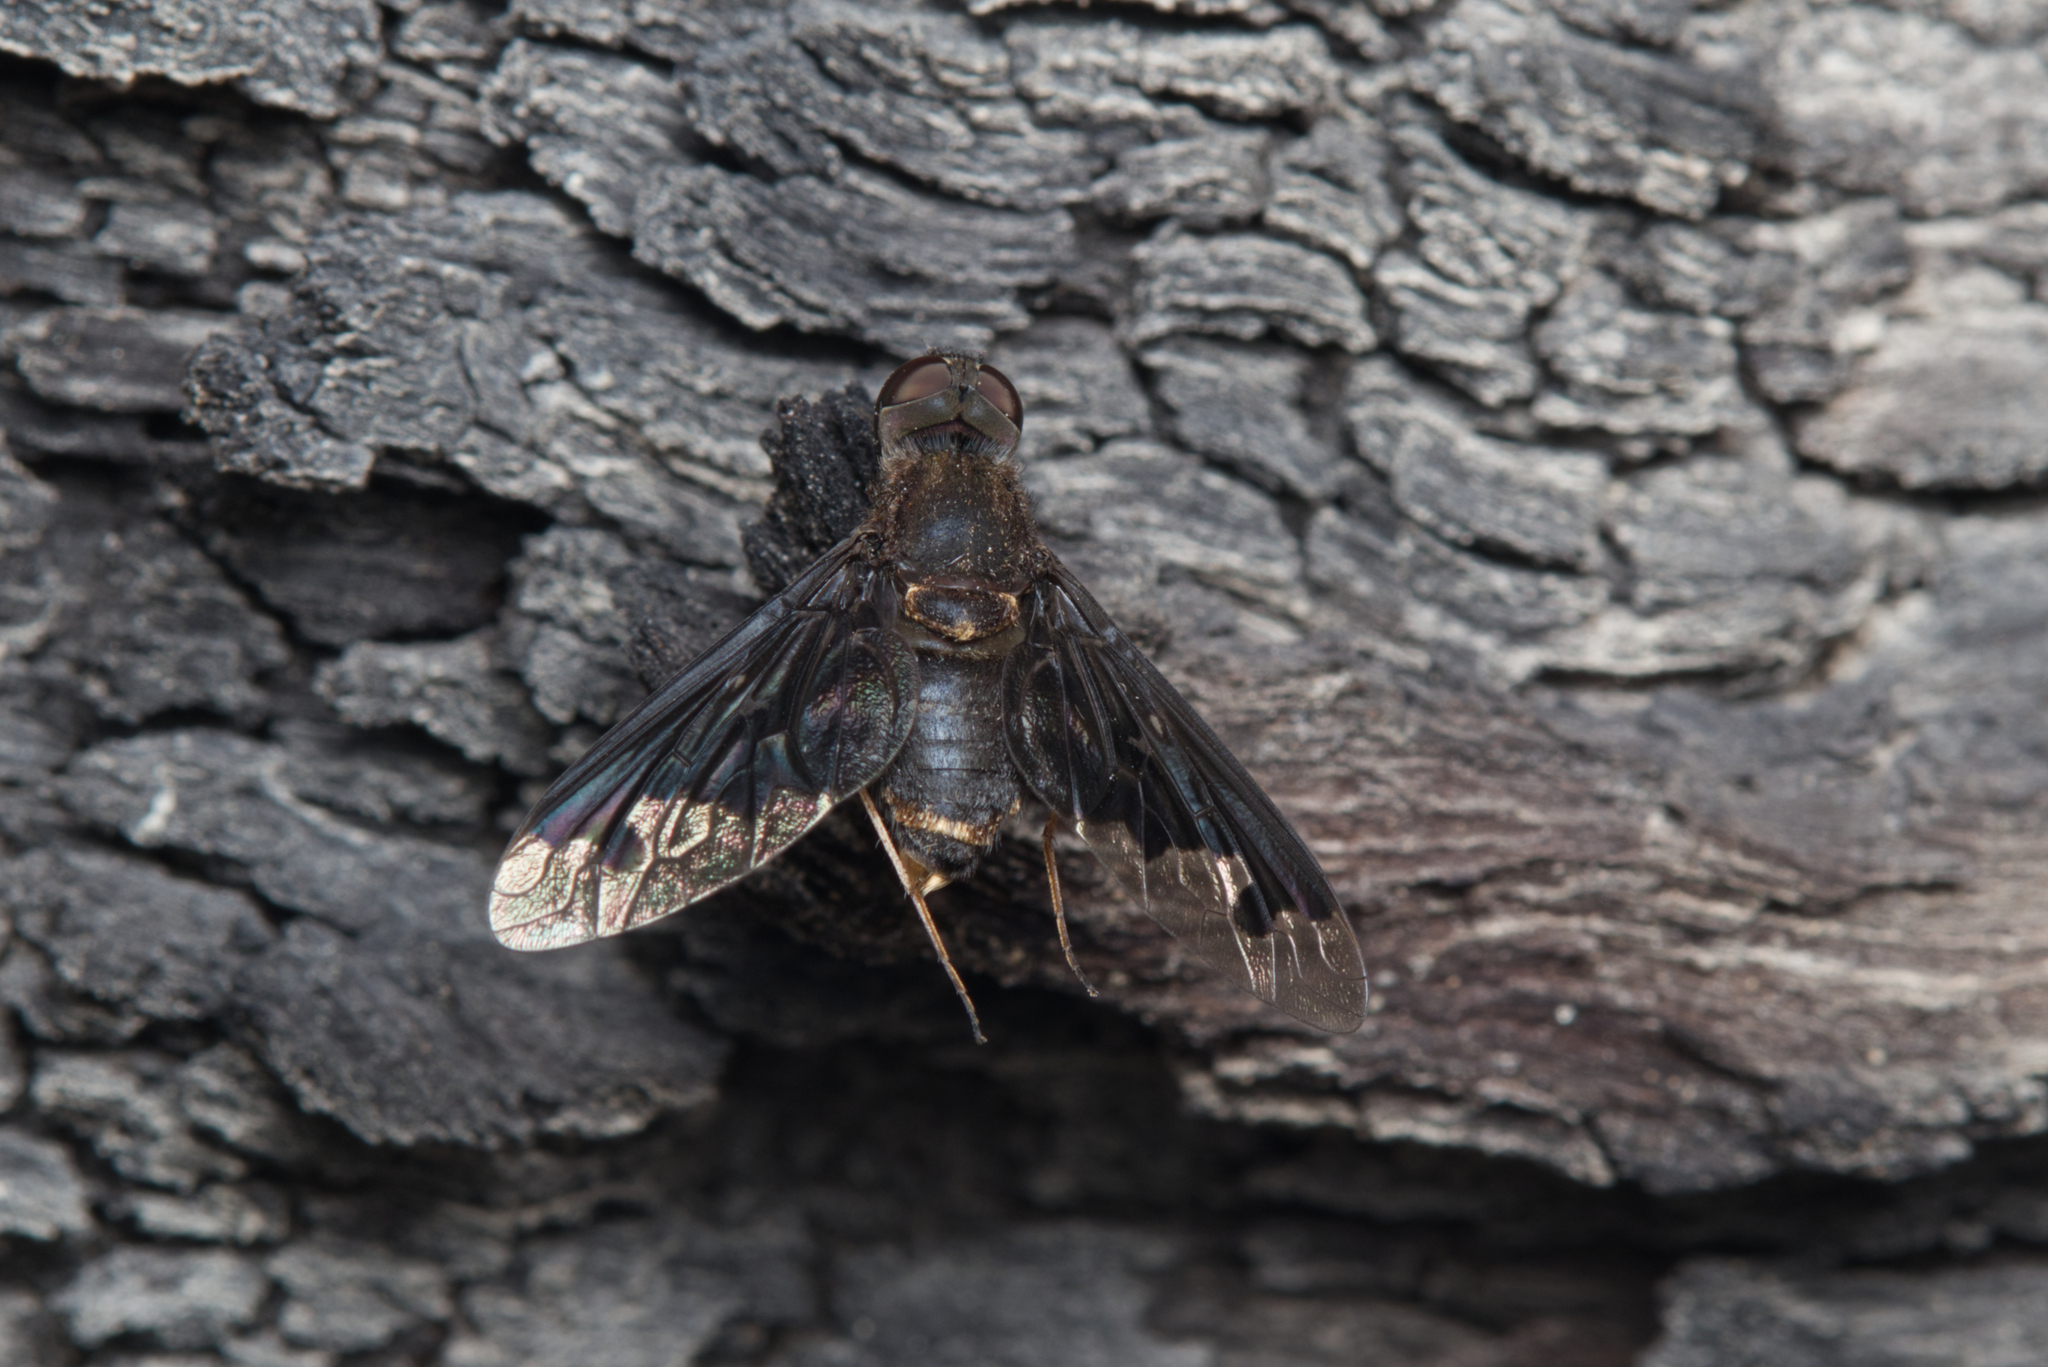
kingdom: Animalia
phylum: Arthropoda
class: Insecta
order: Diptera
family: Bombyliidae
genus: Anthrax
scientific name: Anthrax proconcisus
